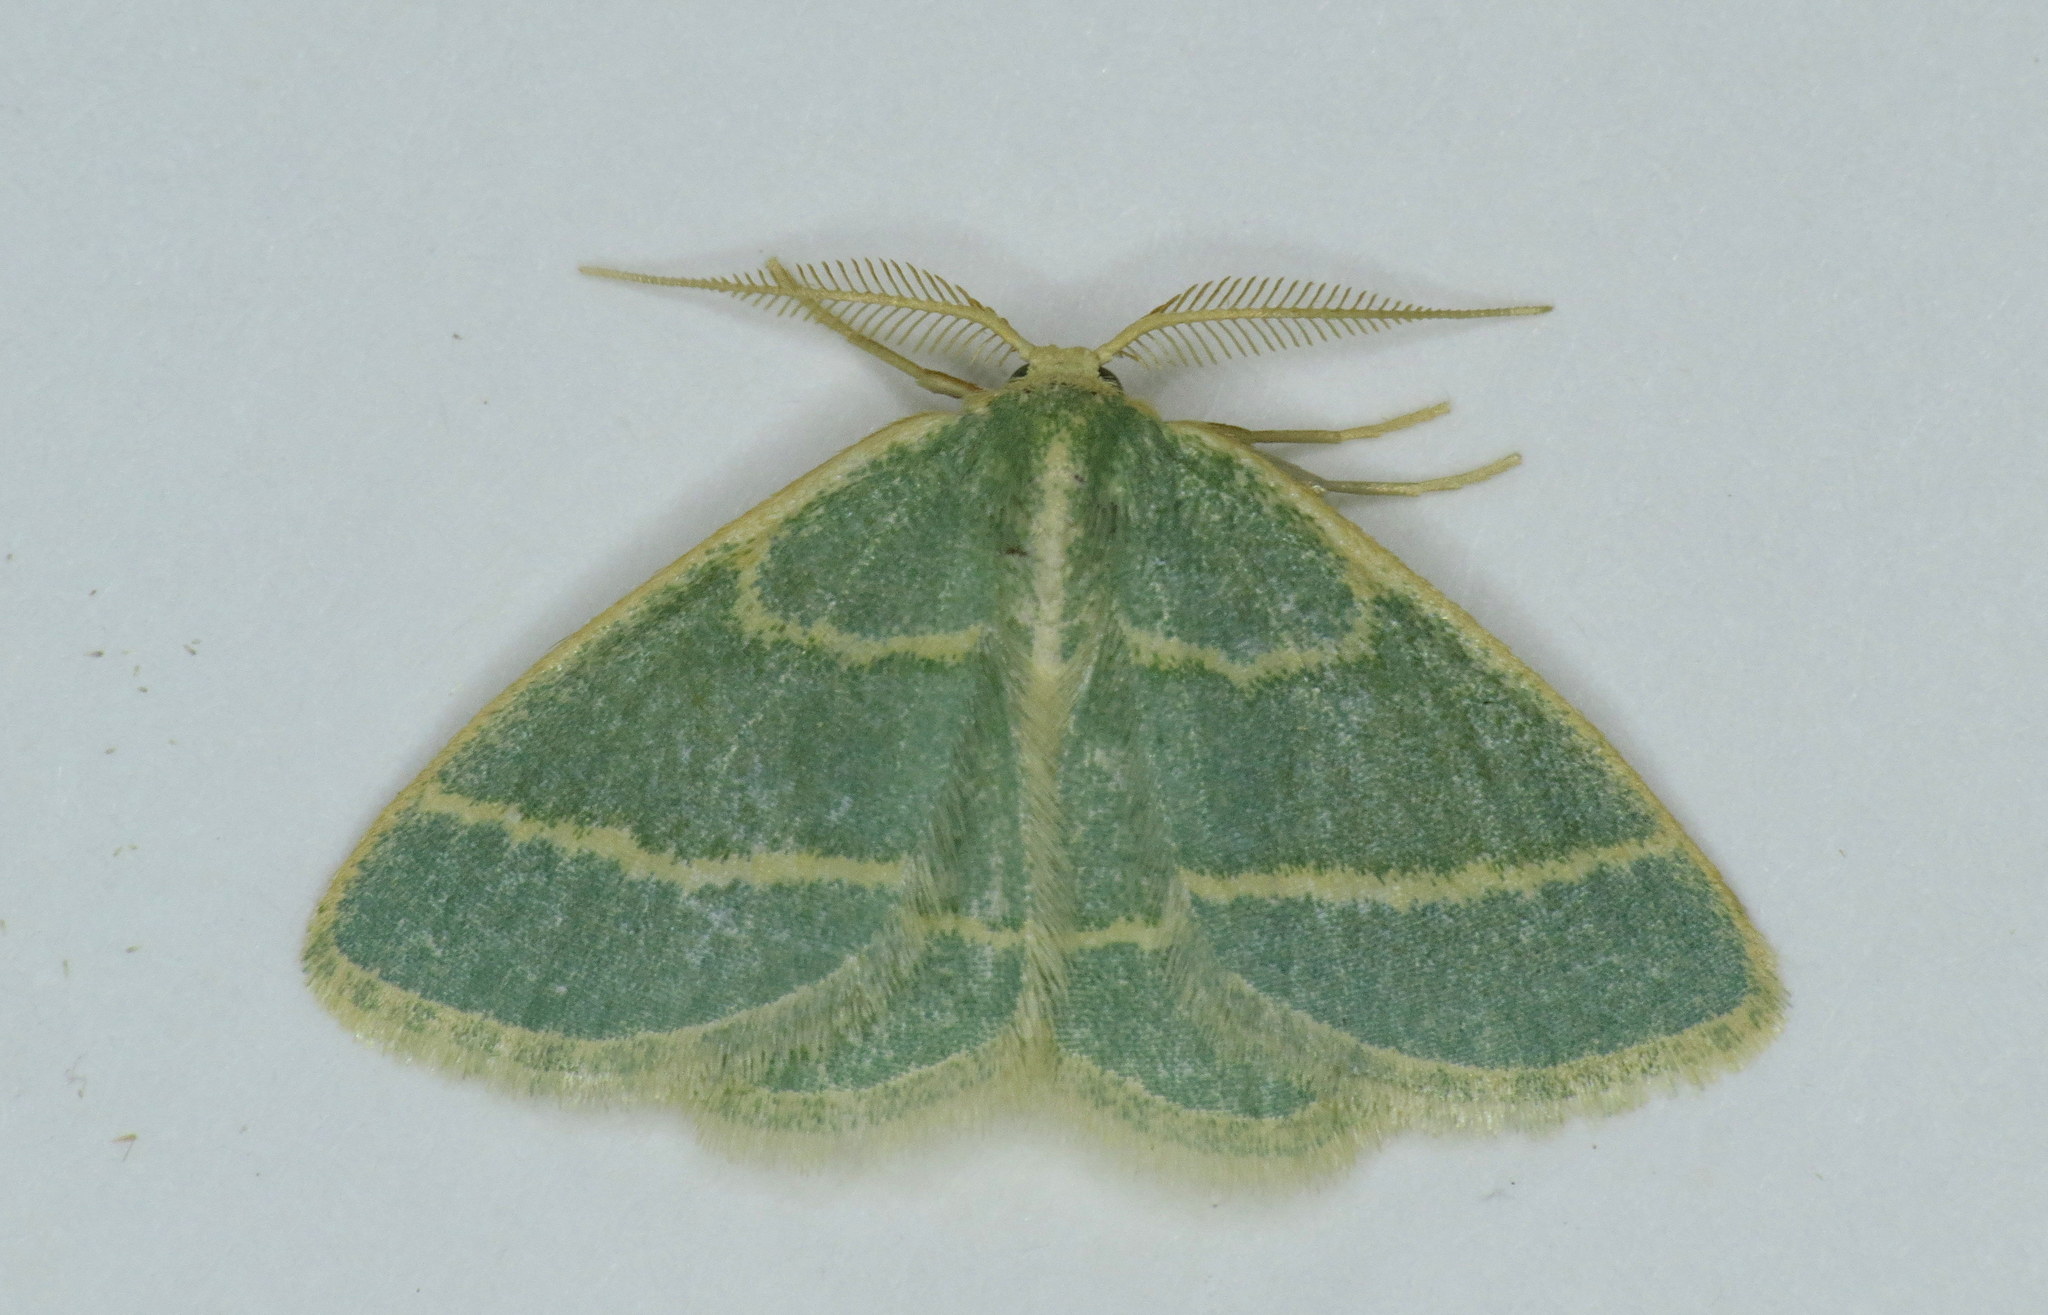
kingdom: Animalia
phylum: Arthropoda
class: Insecta
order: Lepidoptera
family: Geometridae
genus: Chlorochlamys
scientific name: Chlorochlamys chloroleucaria
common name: Blackberry looper
